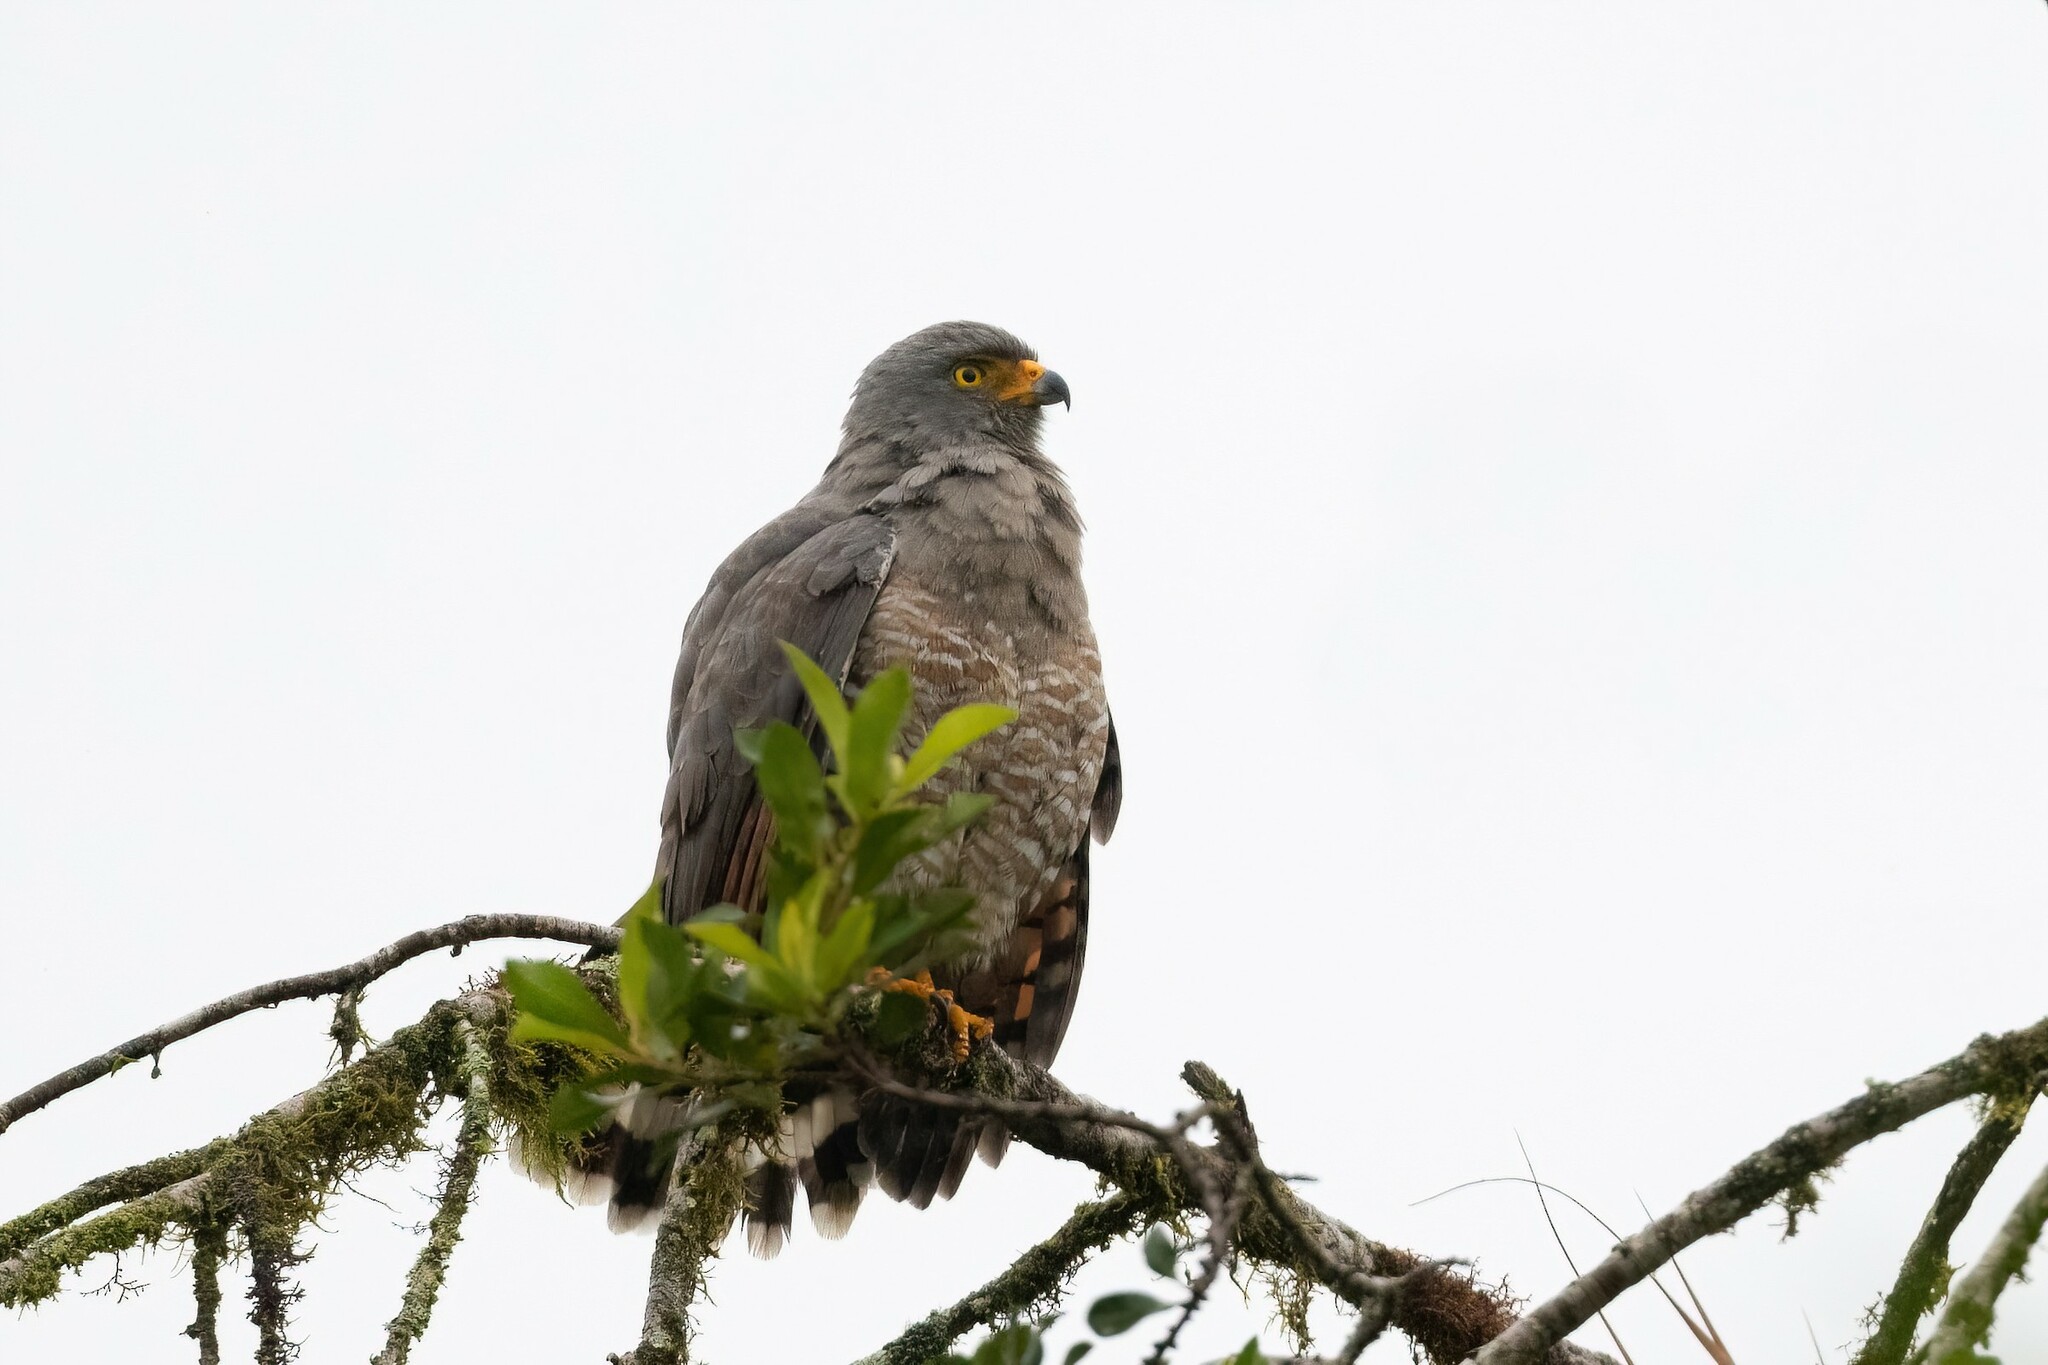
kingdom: Animalia
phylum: Chordata
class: Aves
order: Accipitriformes
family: Accipitridae
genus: Rupornis
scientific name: Rupornis magnirostris
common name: Roadside hawk
